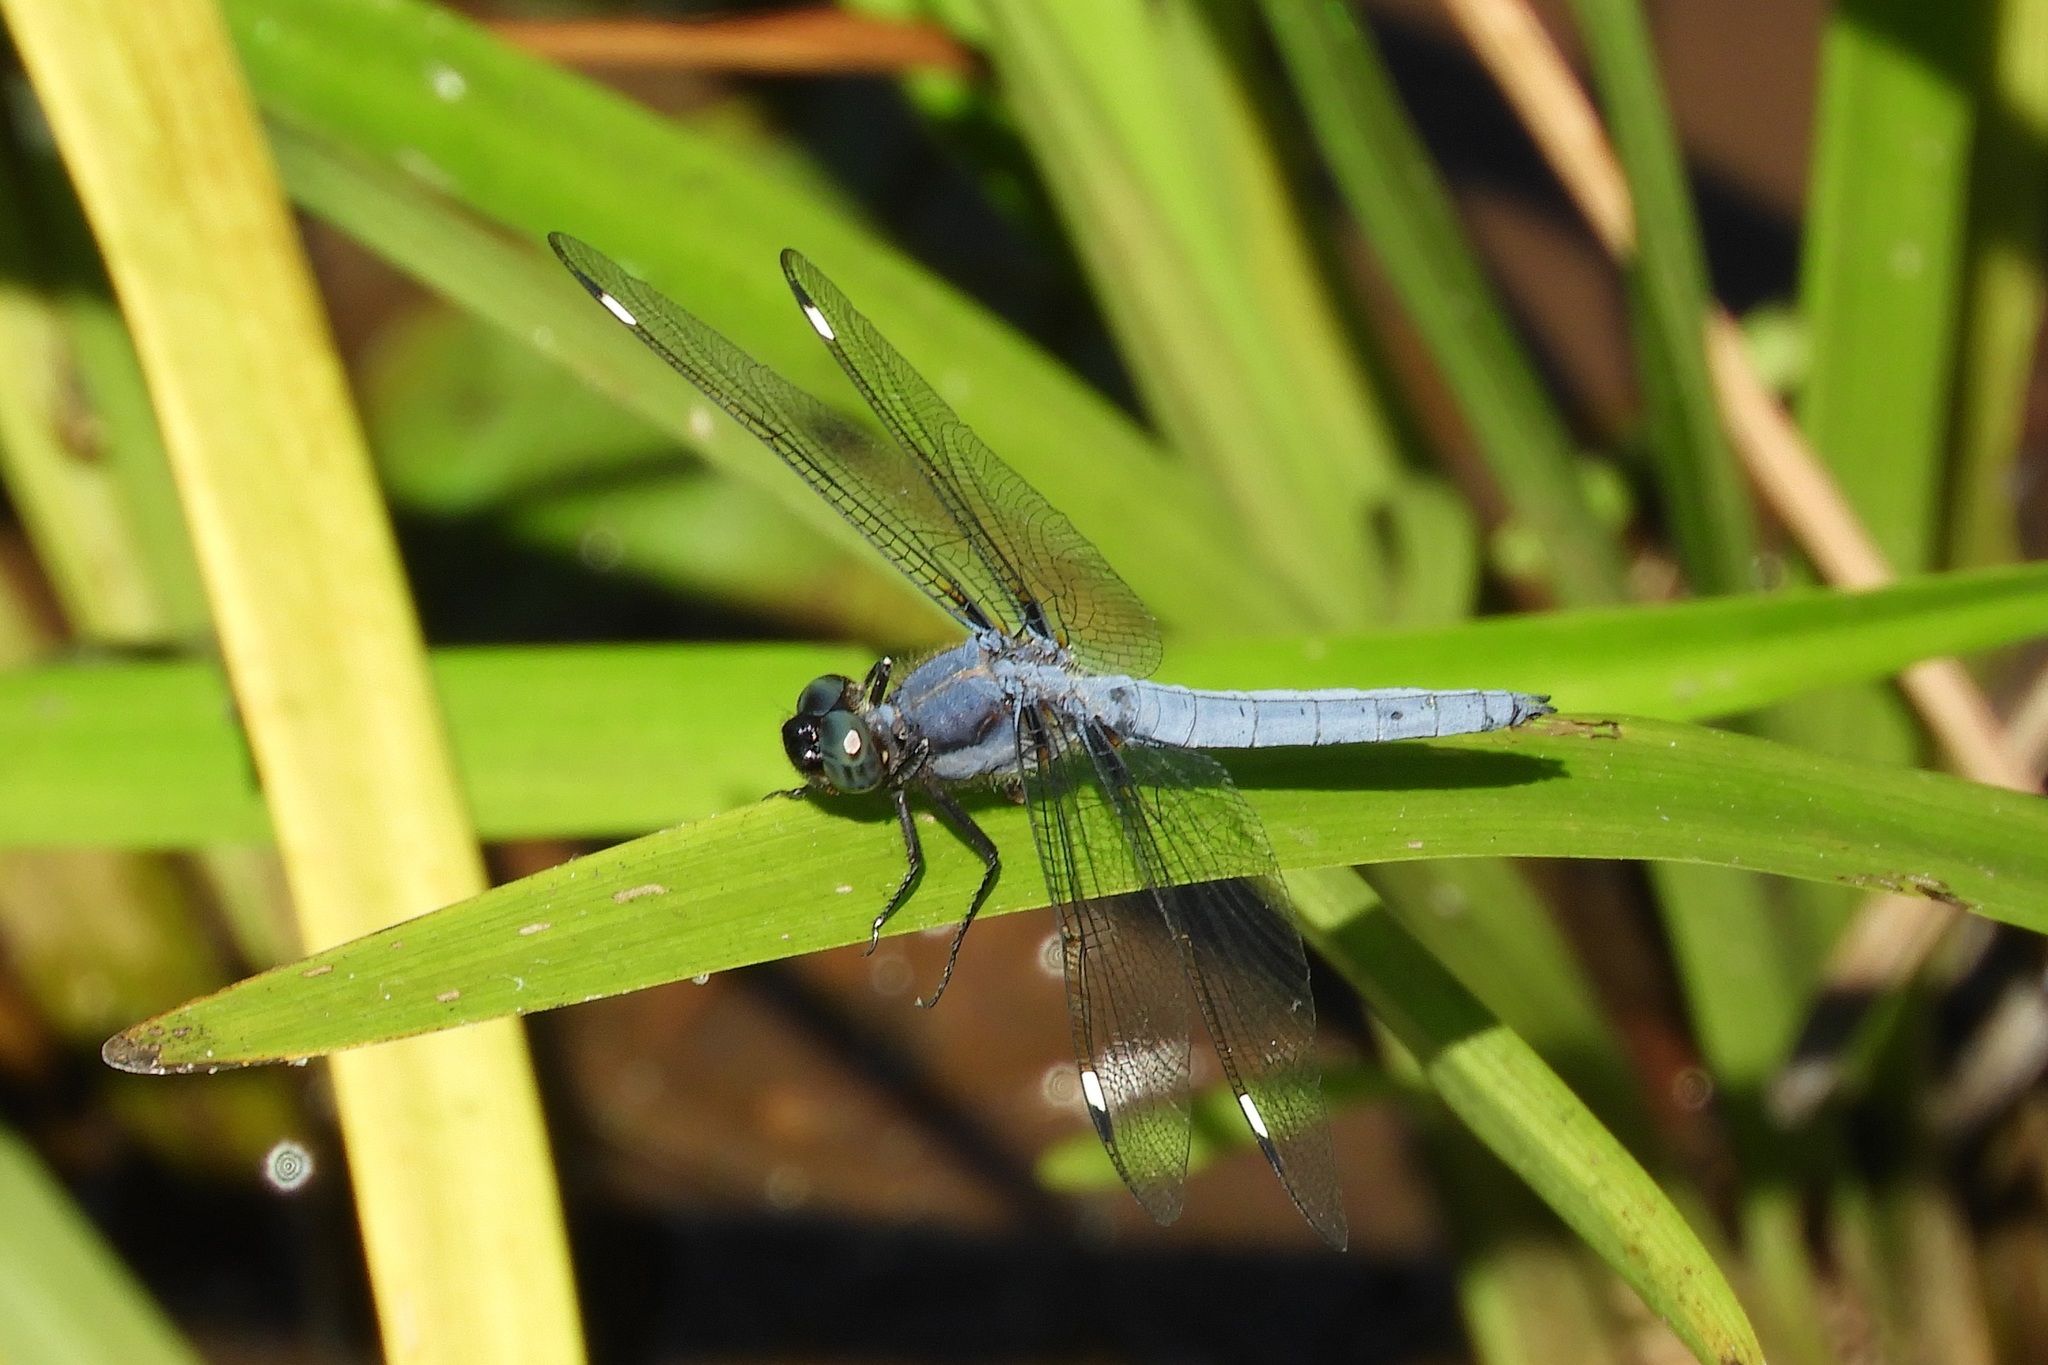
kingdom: Animalia
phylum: Arthropoda
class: Insecta
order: Odonata
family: Libellulidae
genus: Libellula
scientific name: Libellula cyanea
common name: Spangled skimmer
